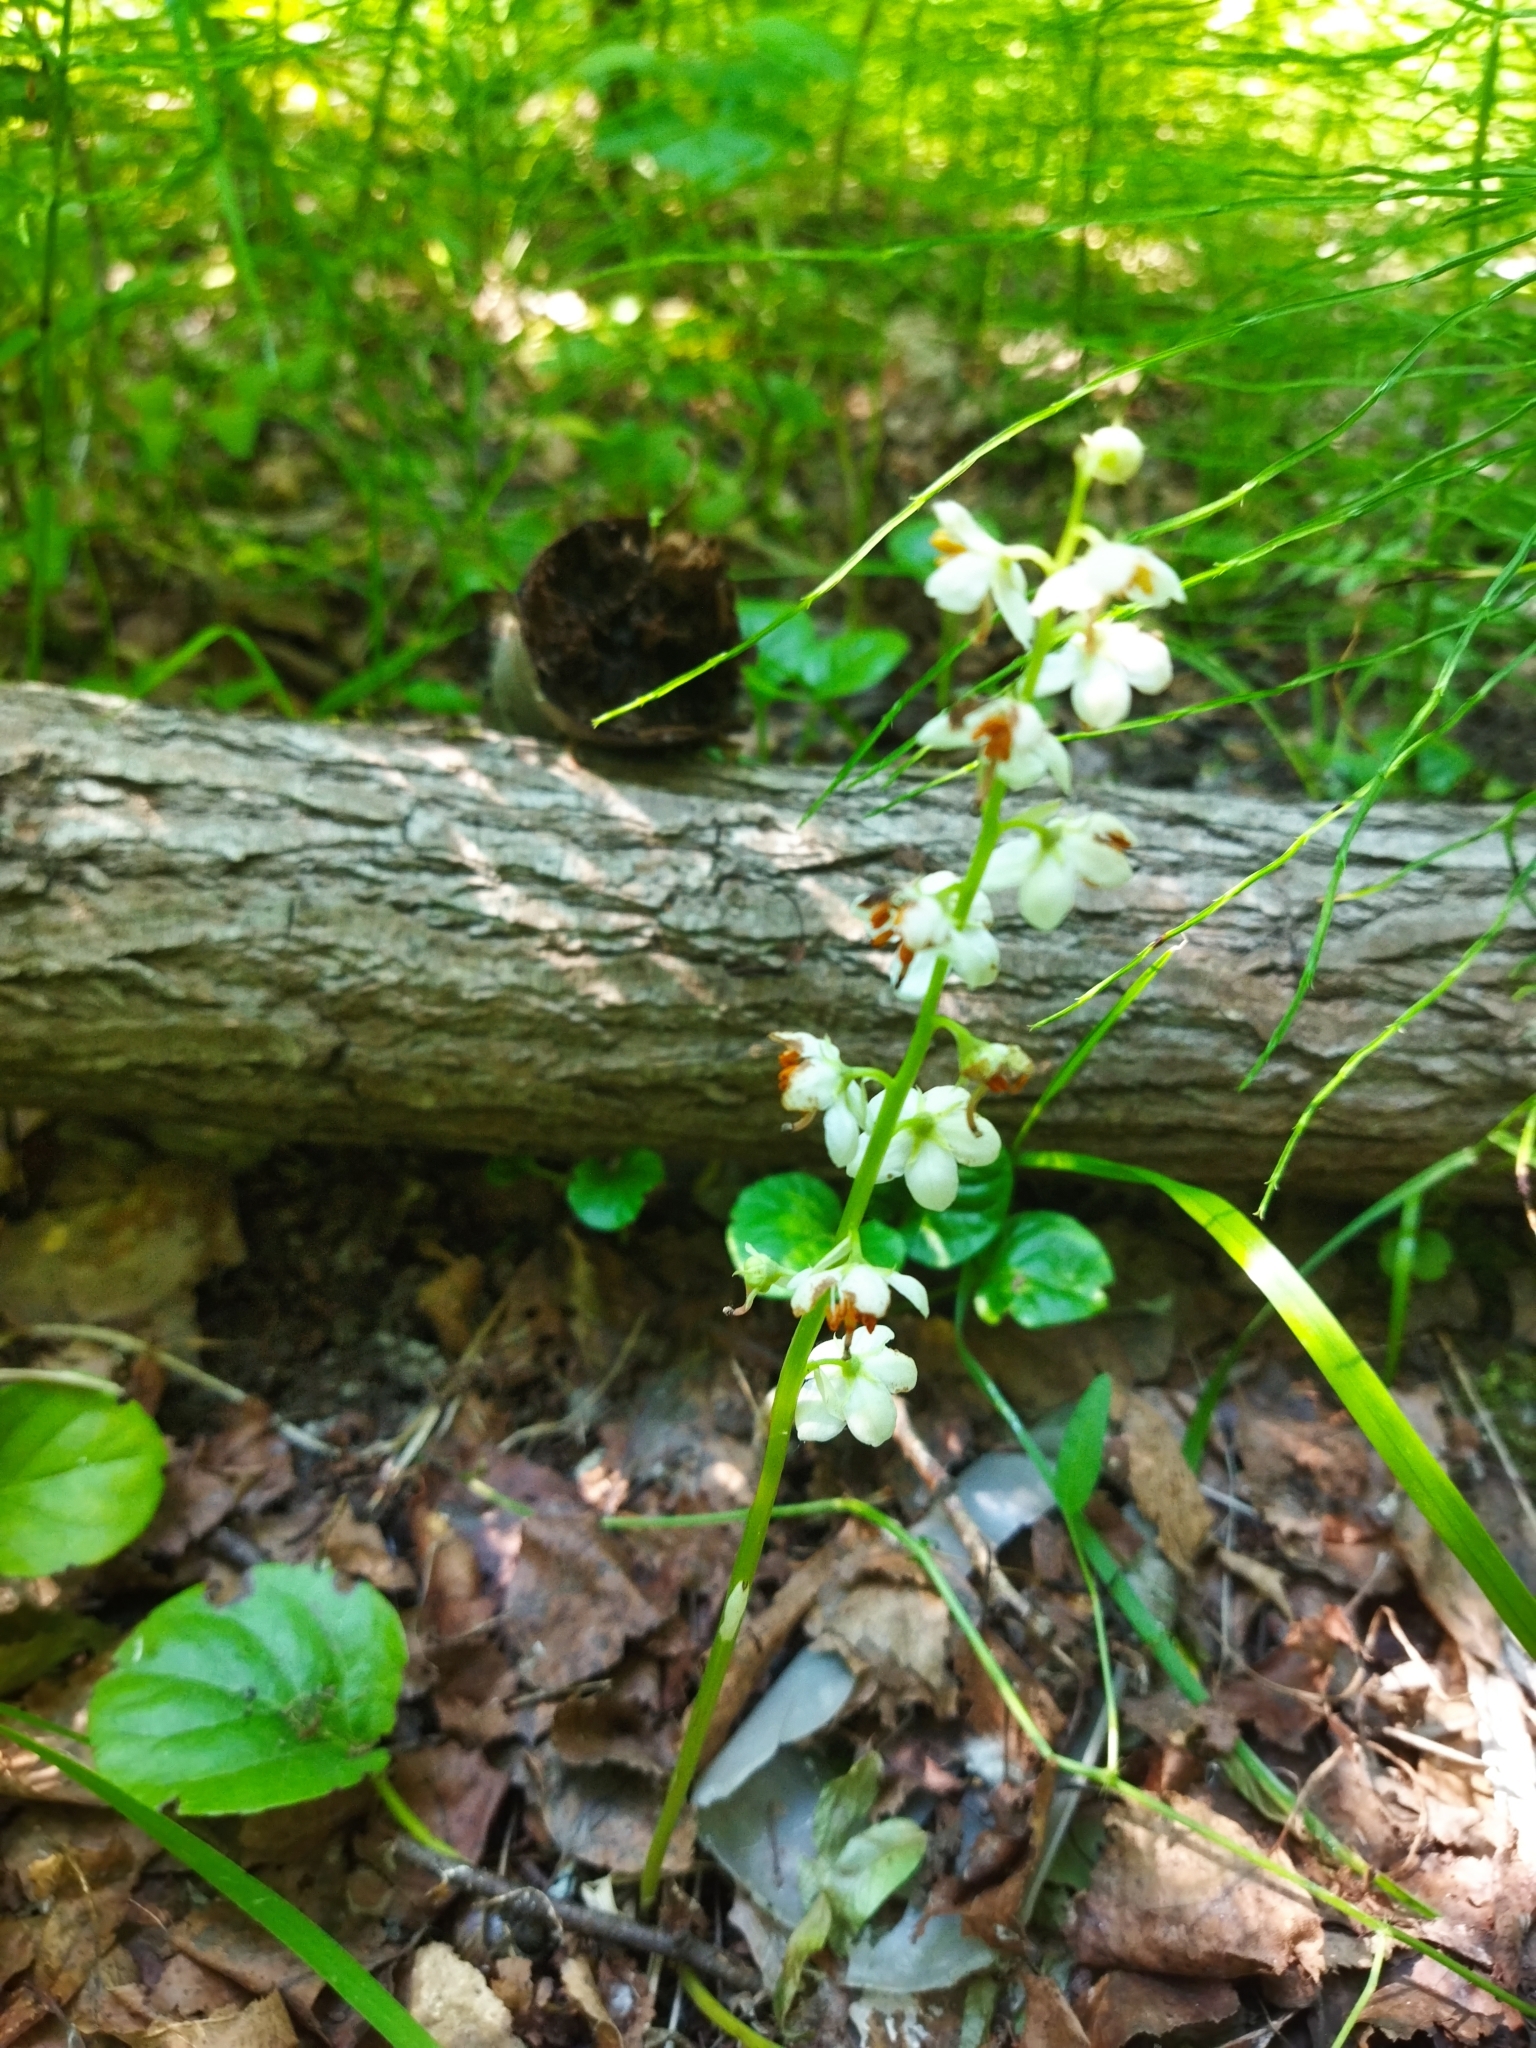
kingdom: Plantae
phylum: Tracheophyta
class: Magnoliopsida
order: Ericales
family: Ericaceae
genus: Pyrola
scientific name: Pyrola rotundifolia
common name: Round-leaved wintergreen
